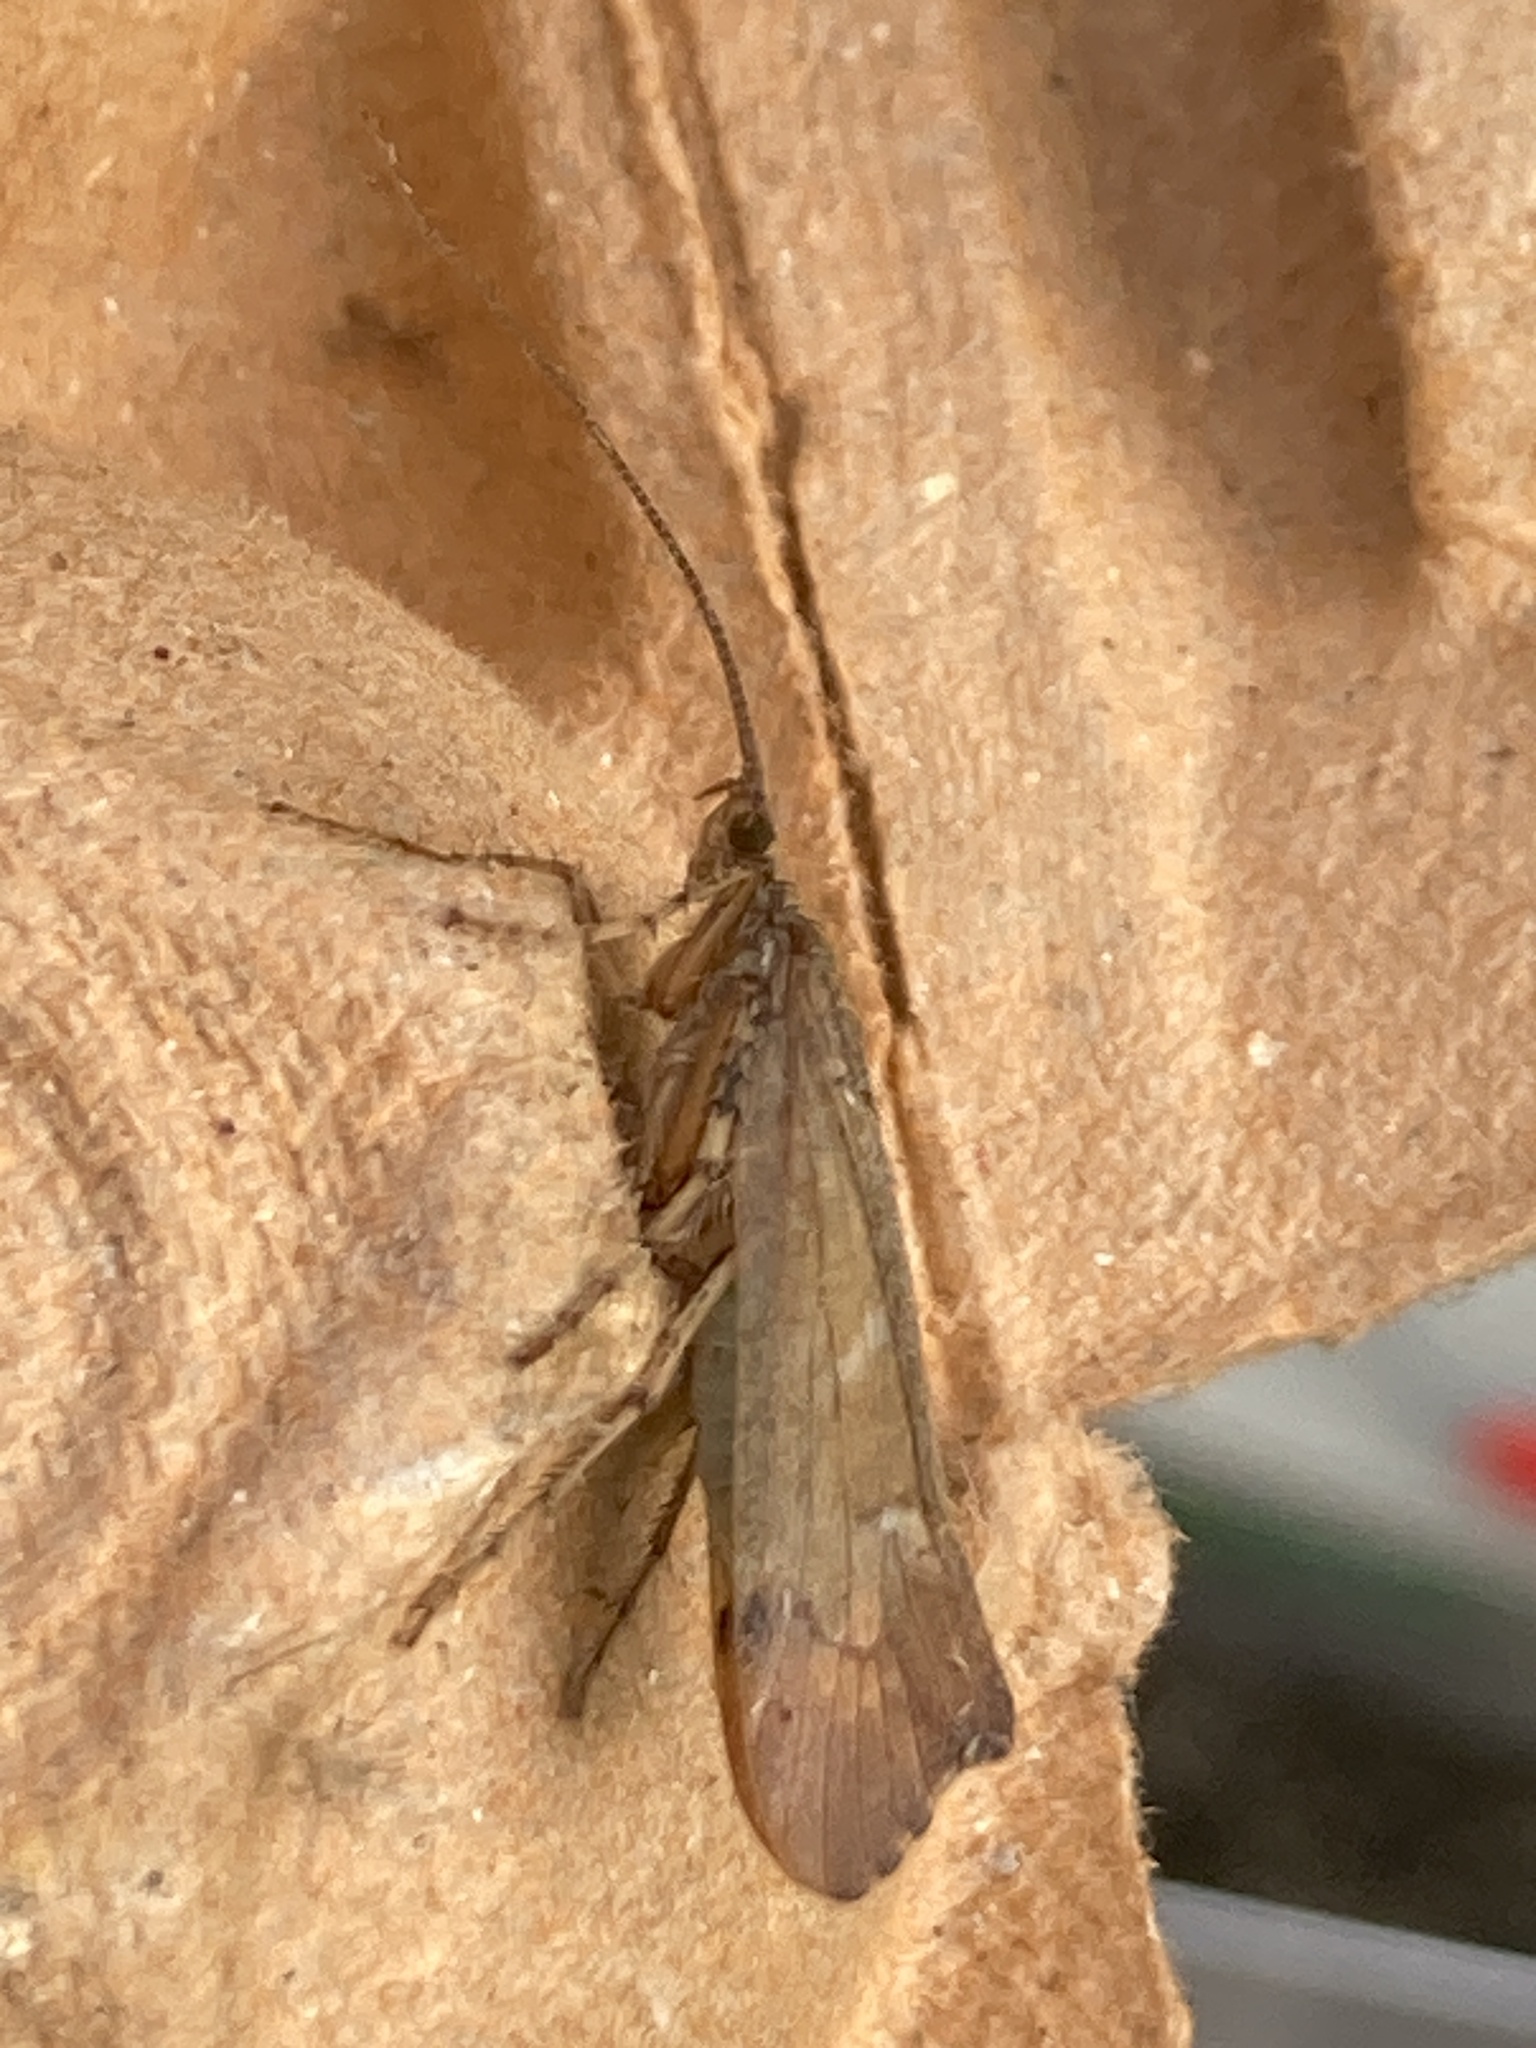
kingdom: Animalia
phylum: Arthropoda
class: Insecta
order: Trichoptera
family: Limnephilidae
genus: Glyphotaelius
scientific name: Glyphotaelius pellucidus
